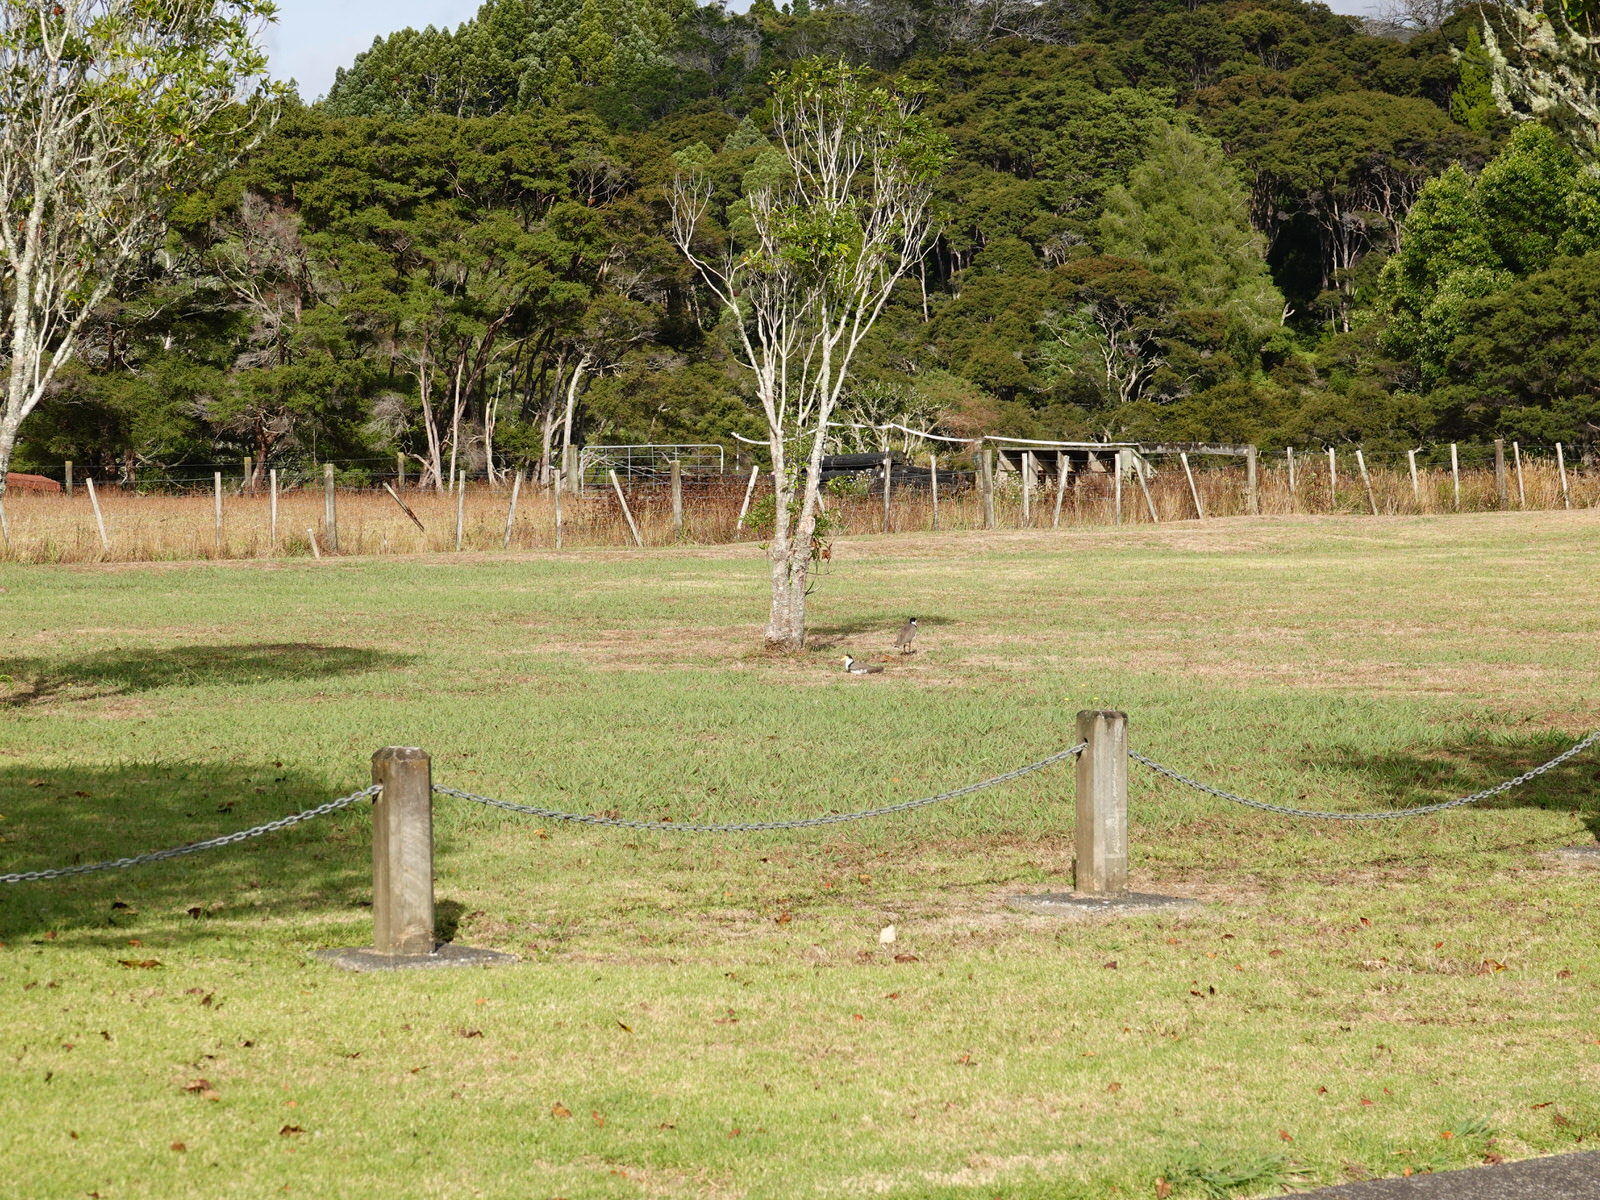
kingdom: Animalia
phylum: Chordata
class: Aves
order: Charadriiformes
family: Charadriidae
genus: Vanellus
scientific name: Vanellus miles
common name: Masked lapwing
